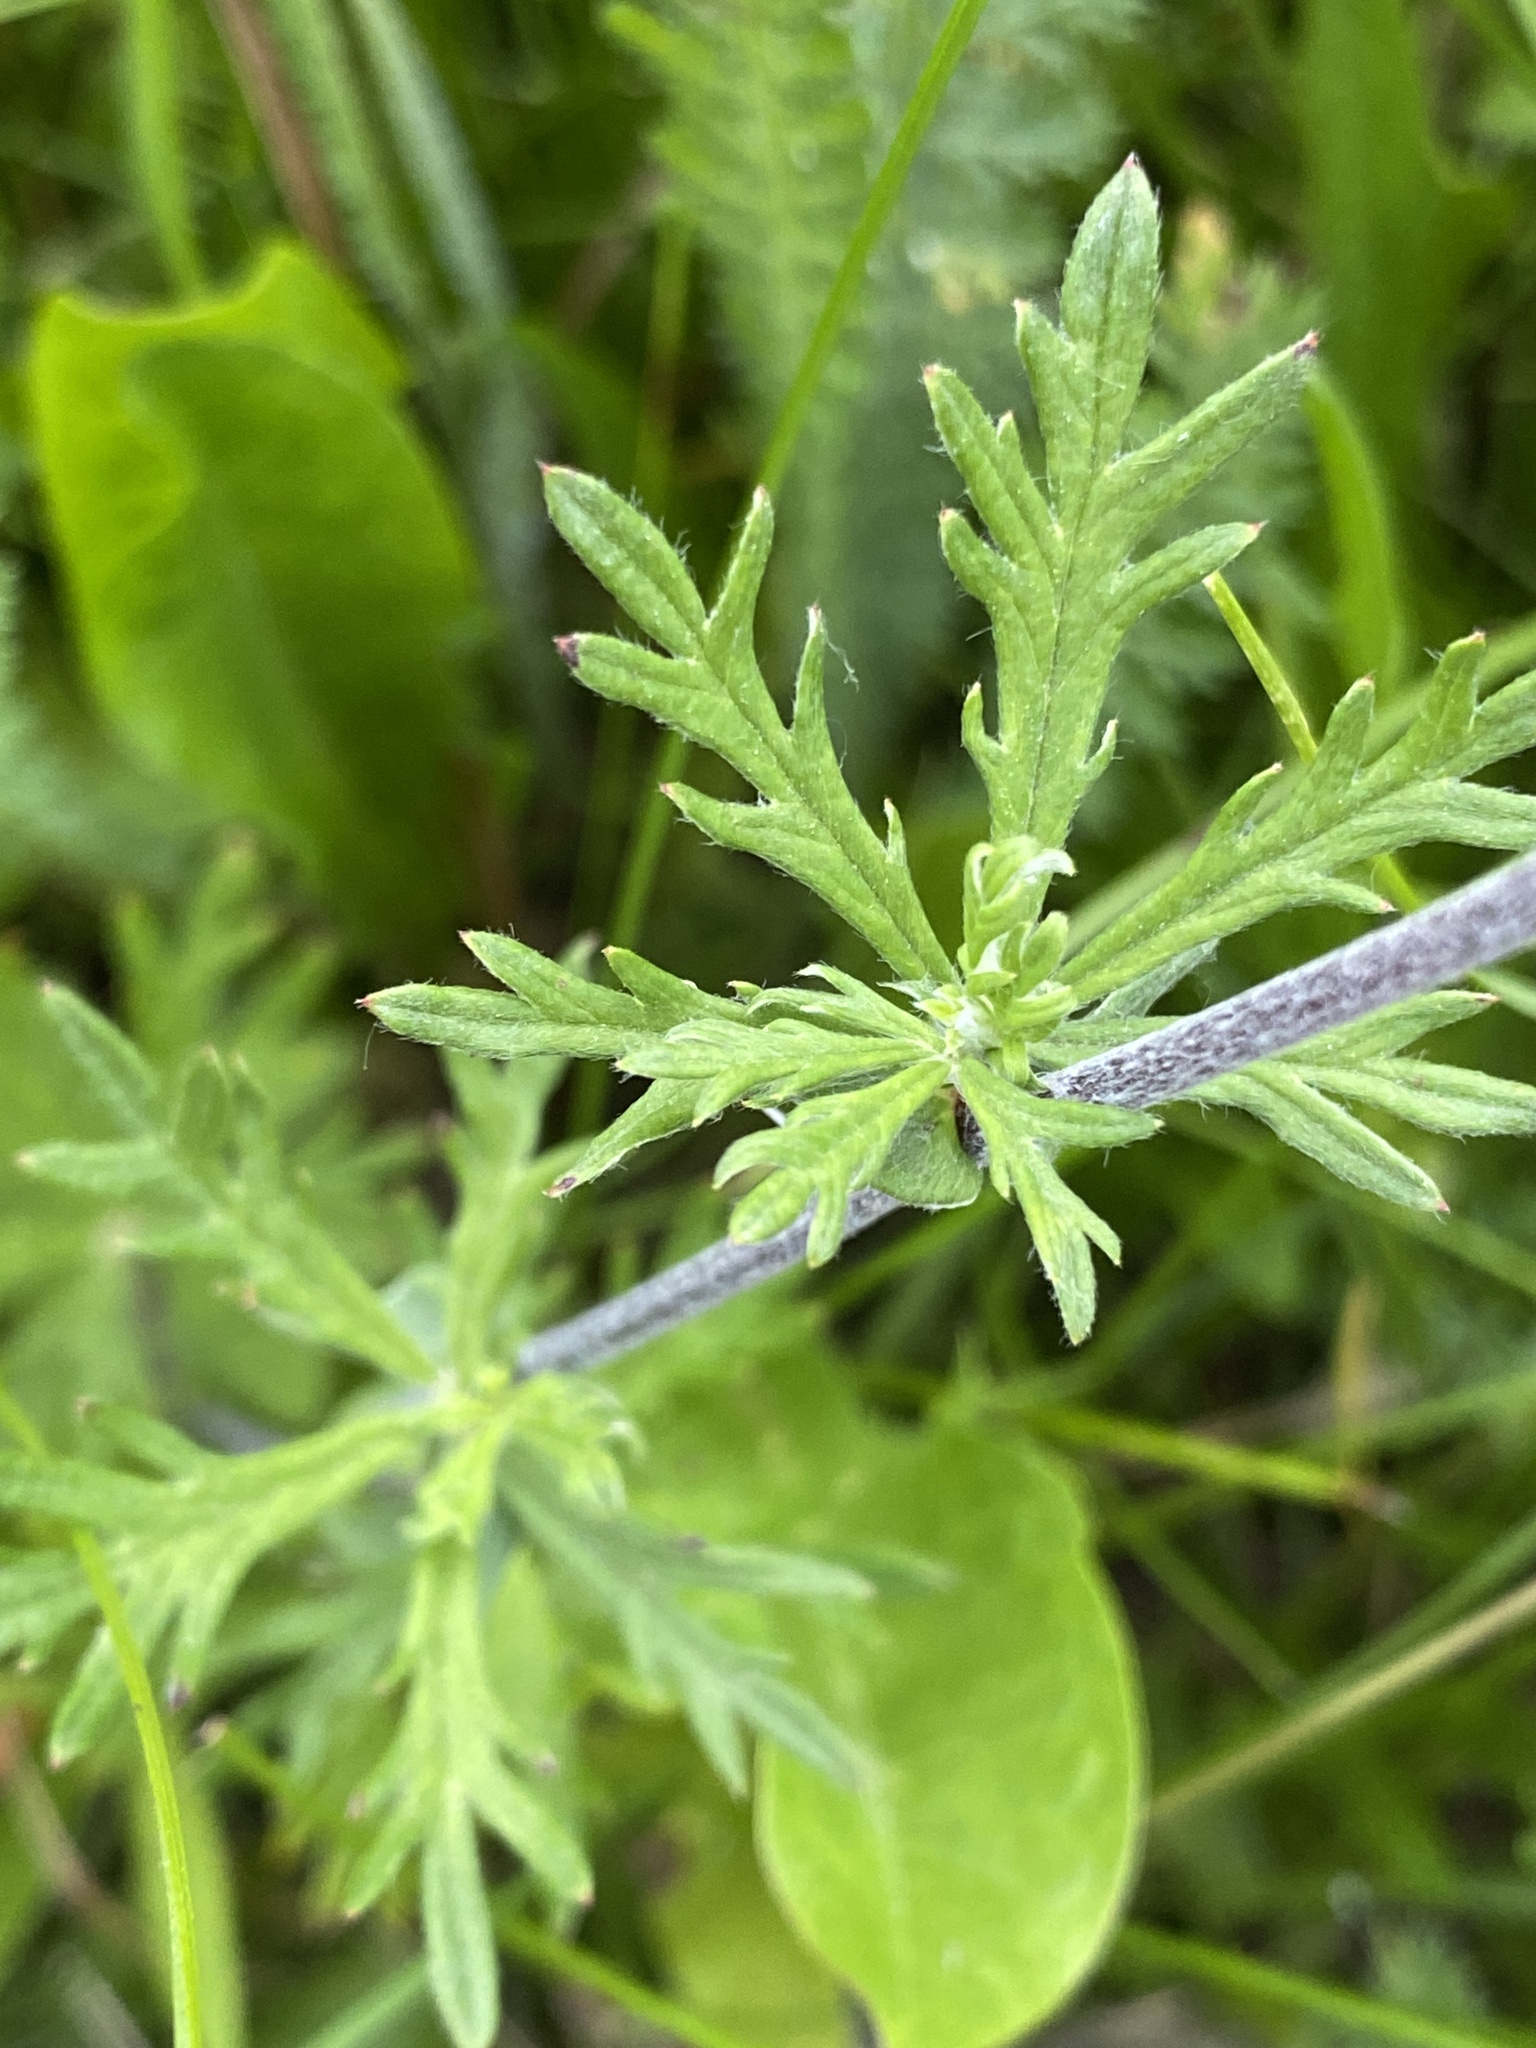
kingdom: Plantae
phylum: Tracheophyta
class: Magnoliopsida
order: Rosales
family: Rosaceae
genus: Potentilla
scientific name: Potentilla argentea
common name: Hoary cinquefoil
